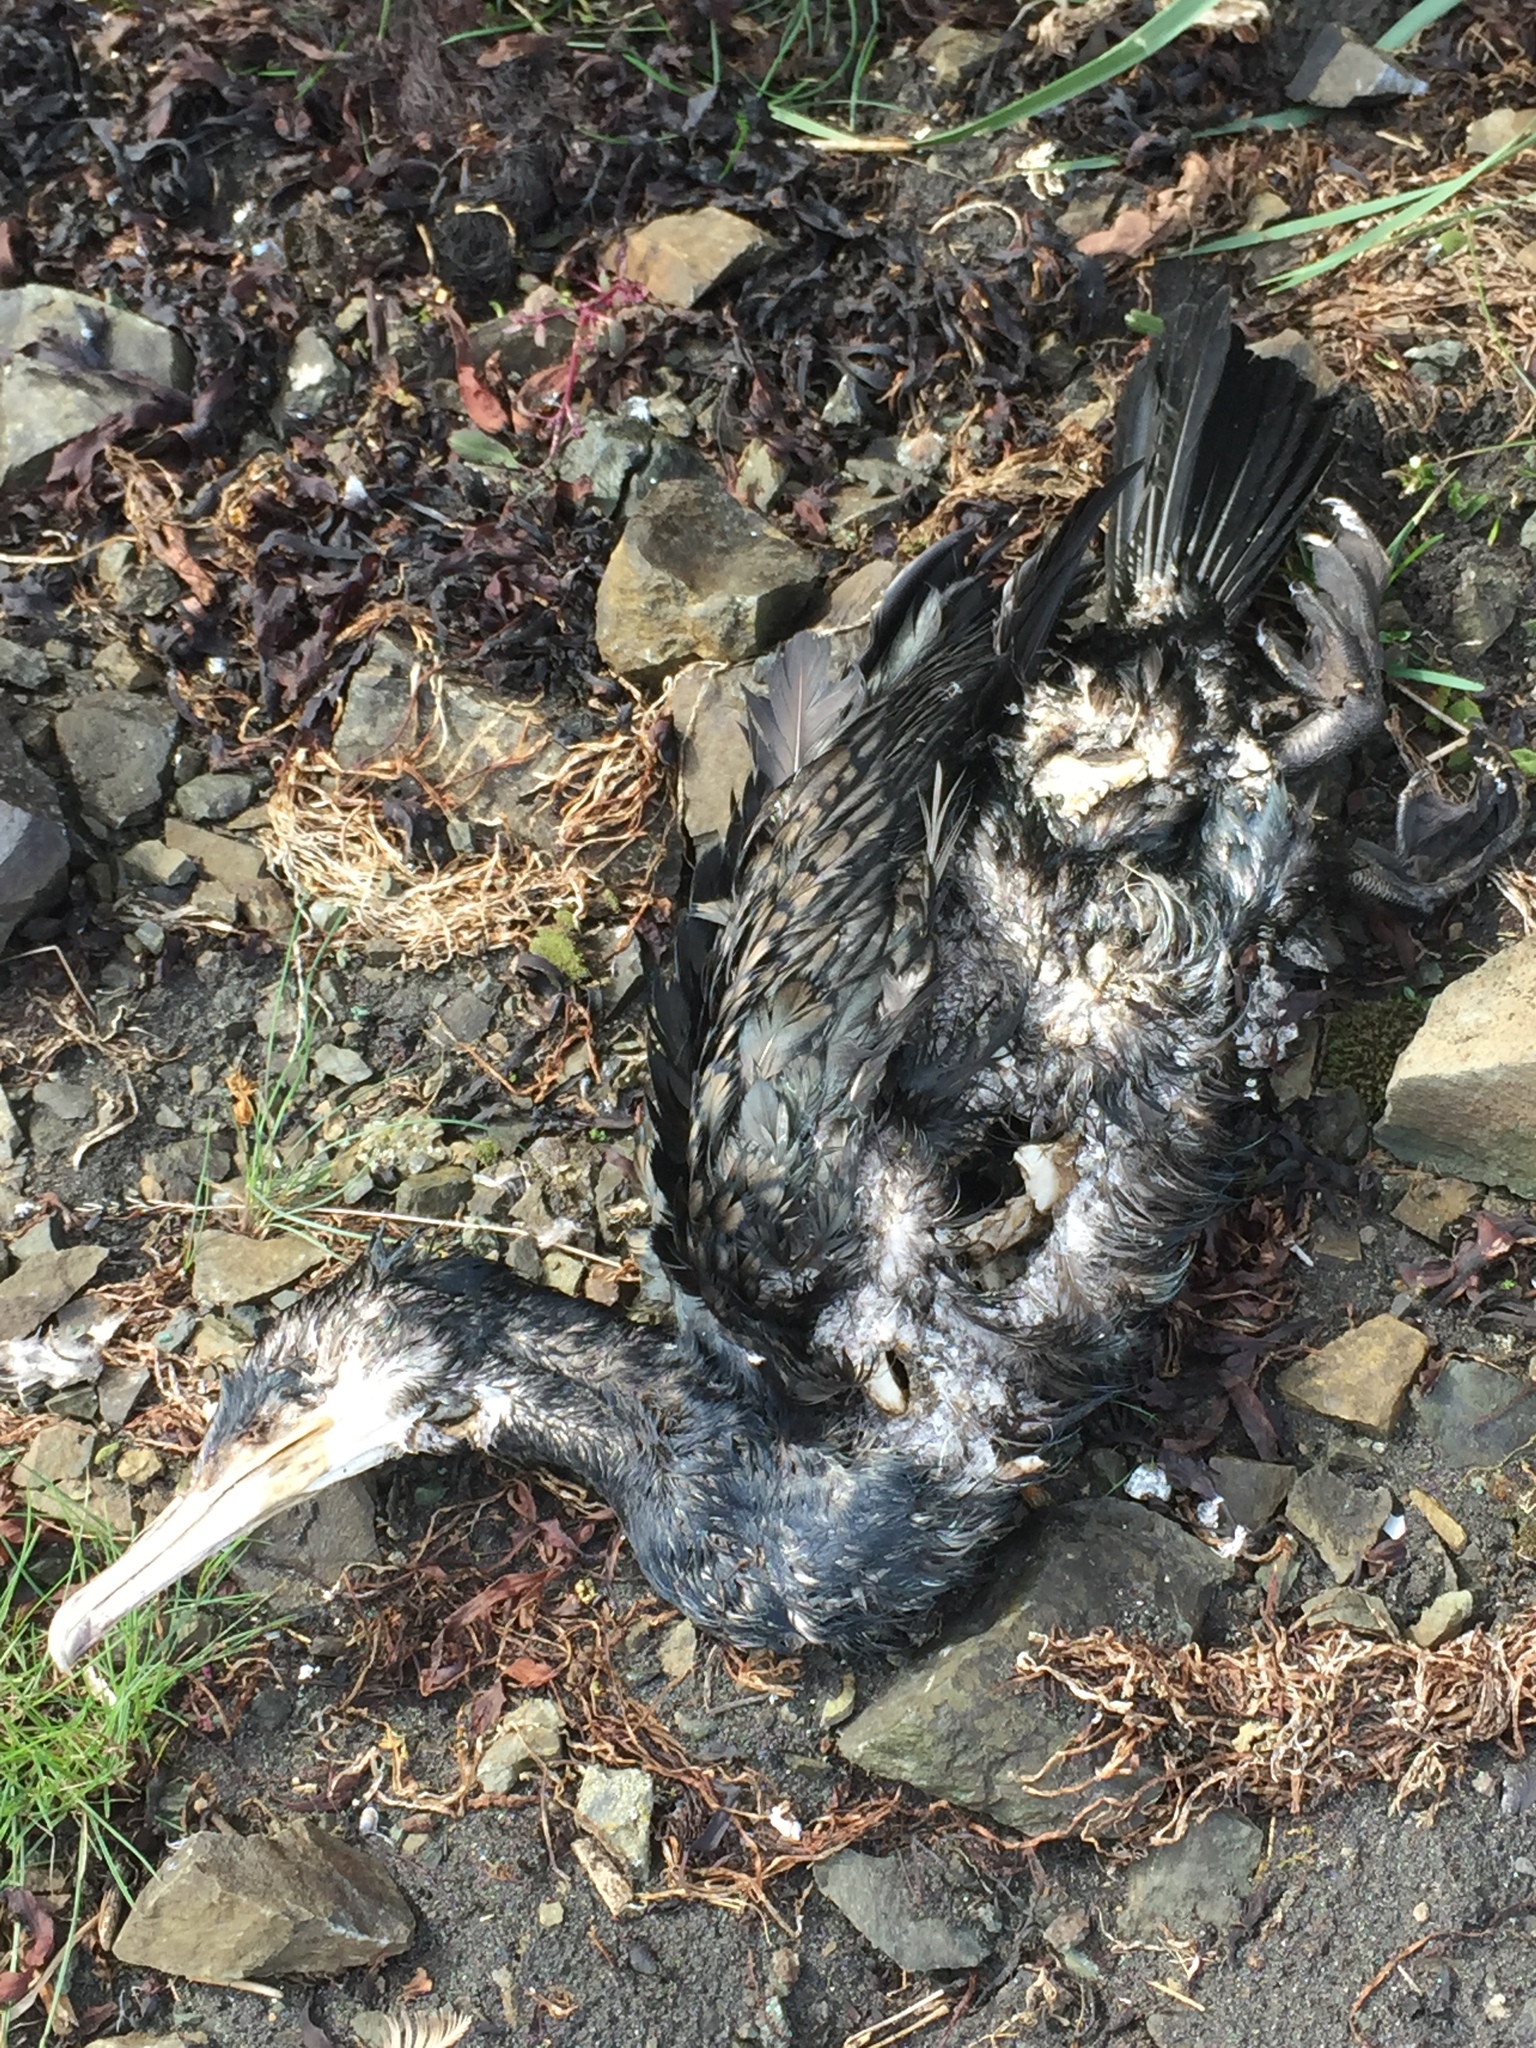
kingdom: Animalia
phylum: Chordata
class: Aves
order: Suliformes
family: Phalacrocoracidae
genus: Phalacrocorax
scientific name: Phalacrocorax carbo
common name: Great cormorant
